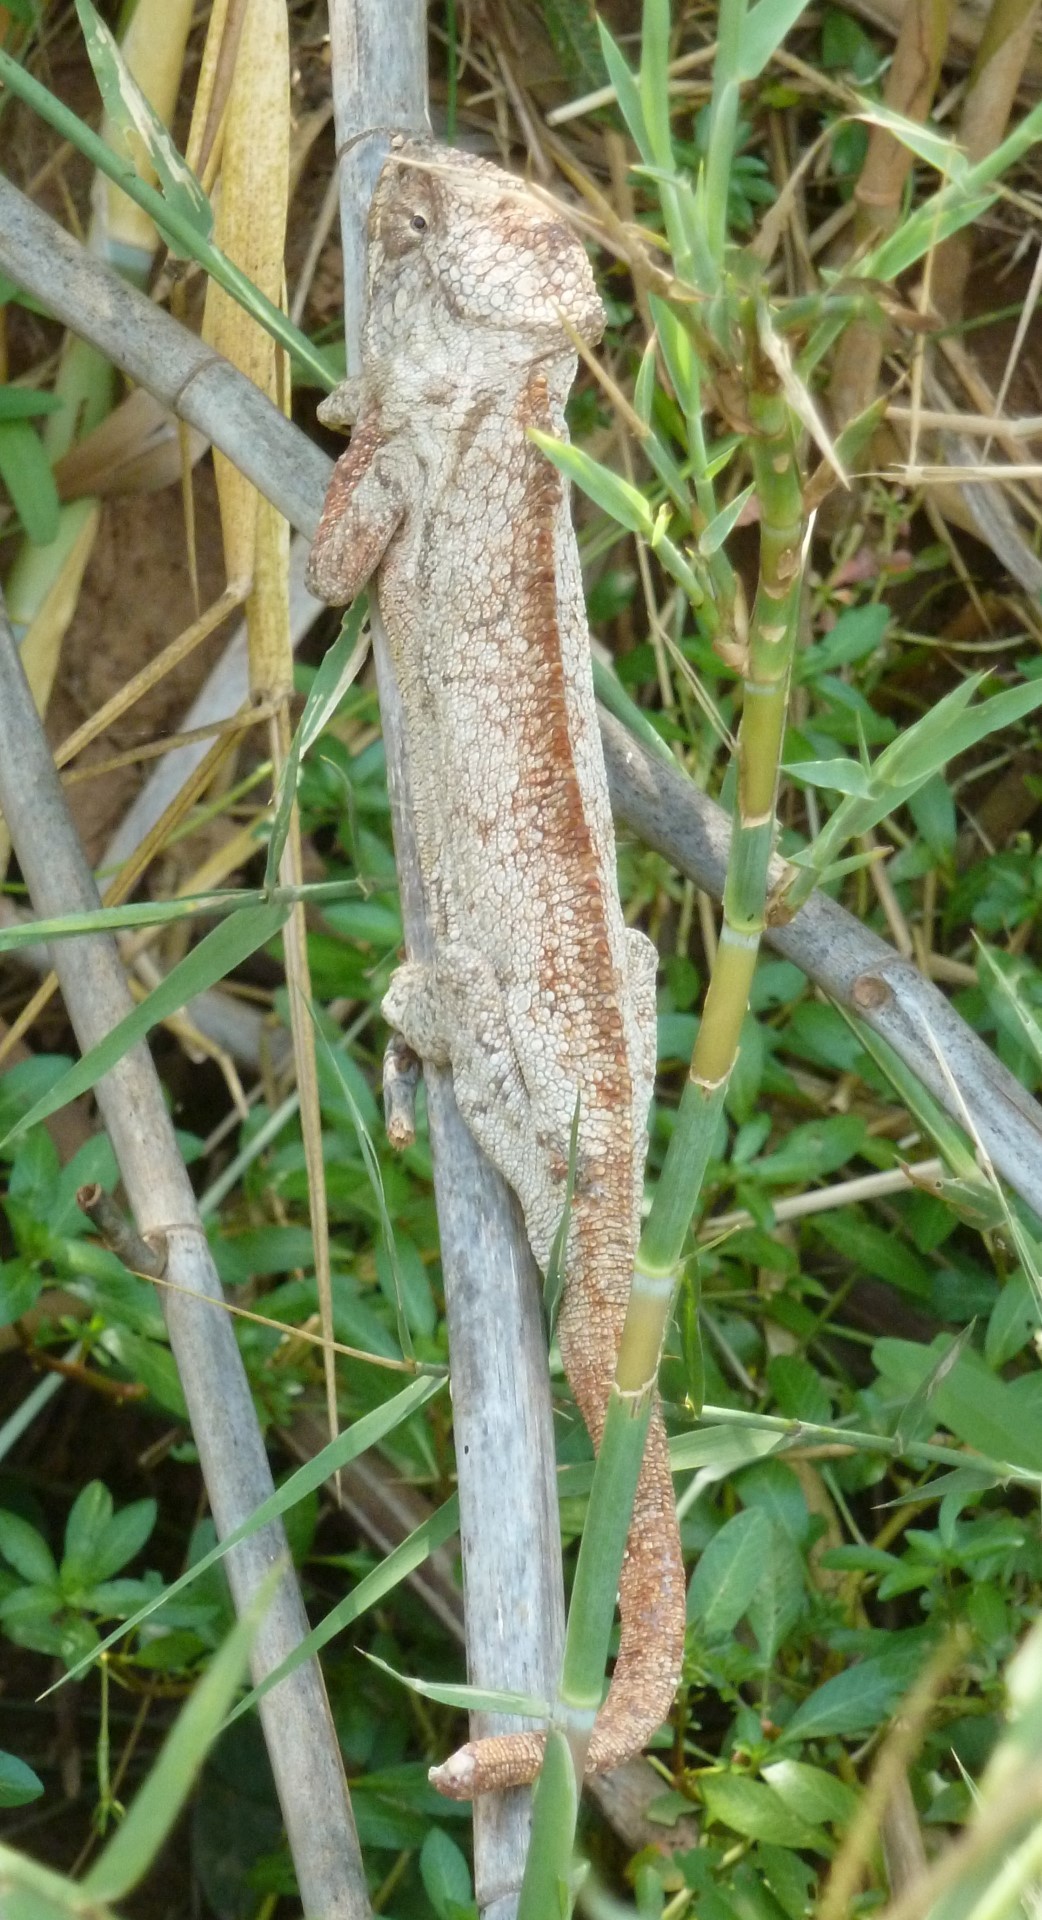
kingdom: Animalia
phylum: Chordata
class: Squamata
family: Chamaeleonidae
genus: Furcifer
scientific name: Furcifer oustaleti
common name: Oustalet's chameleon
